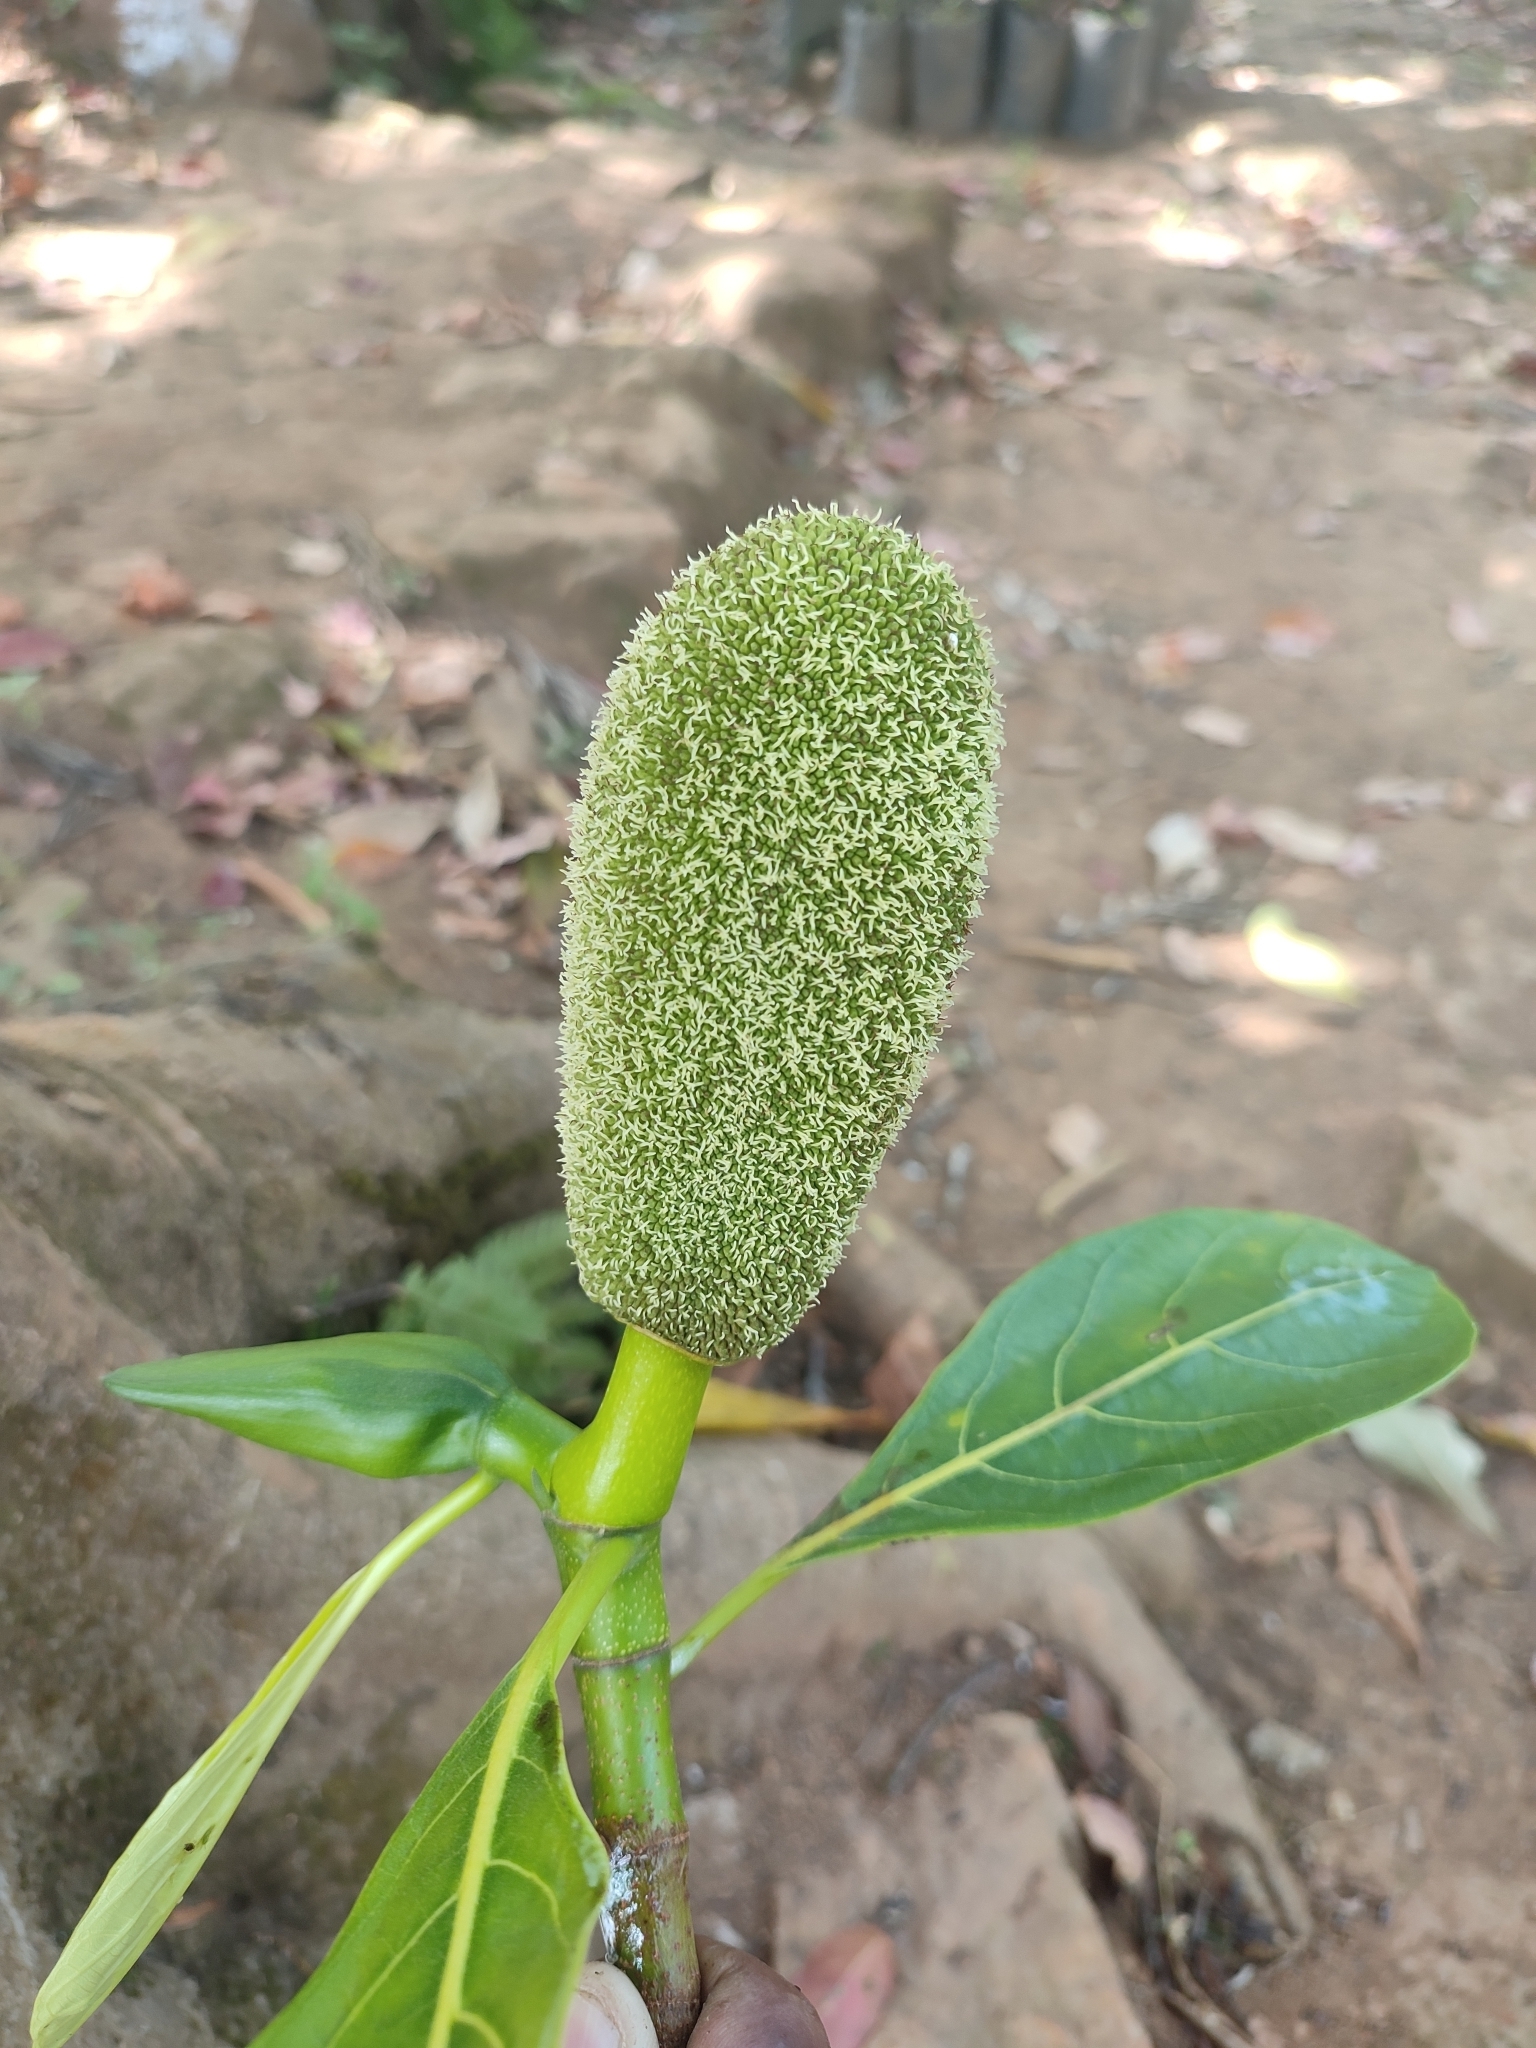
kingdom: Plantae
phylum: Tracheophyta
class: Magnoliopsida
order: Rosales
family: Moraceae
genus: Artocarpus
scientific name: Artocarpus heterophyllus
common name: Jackfruit
